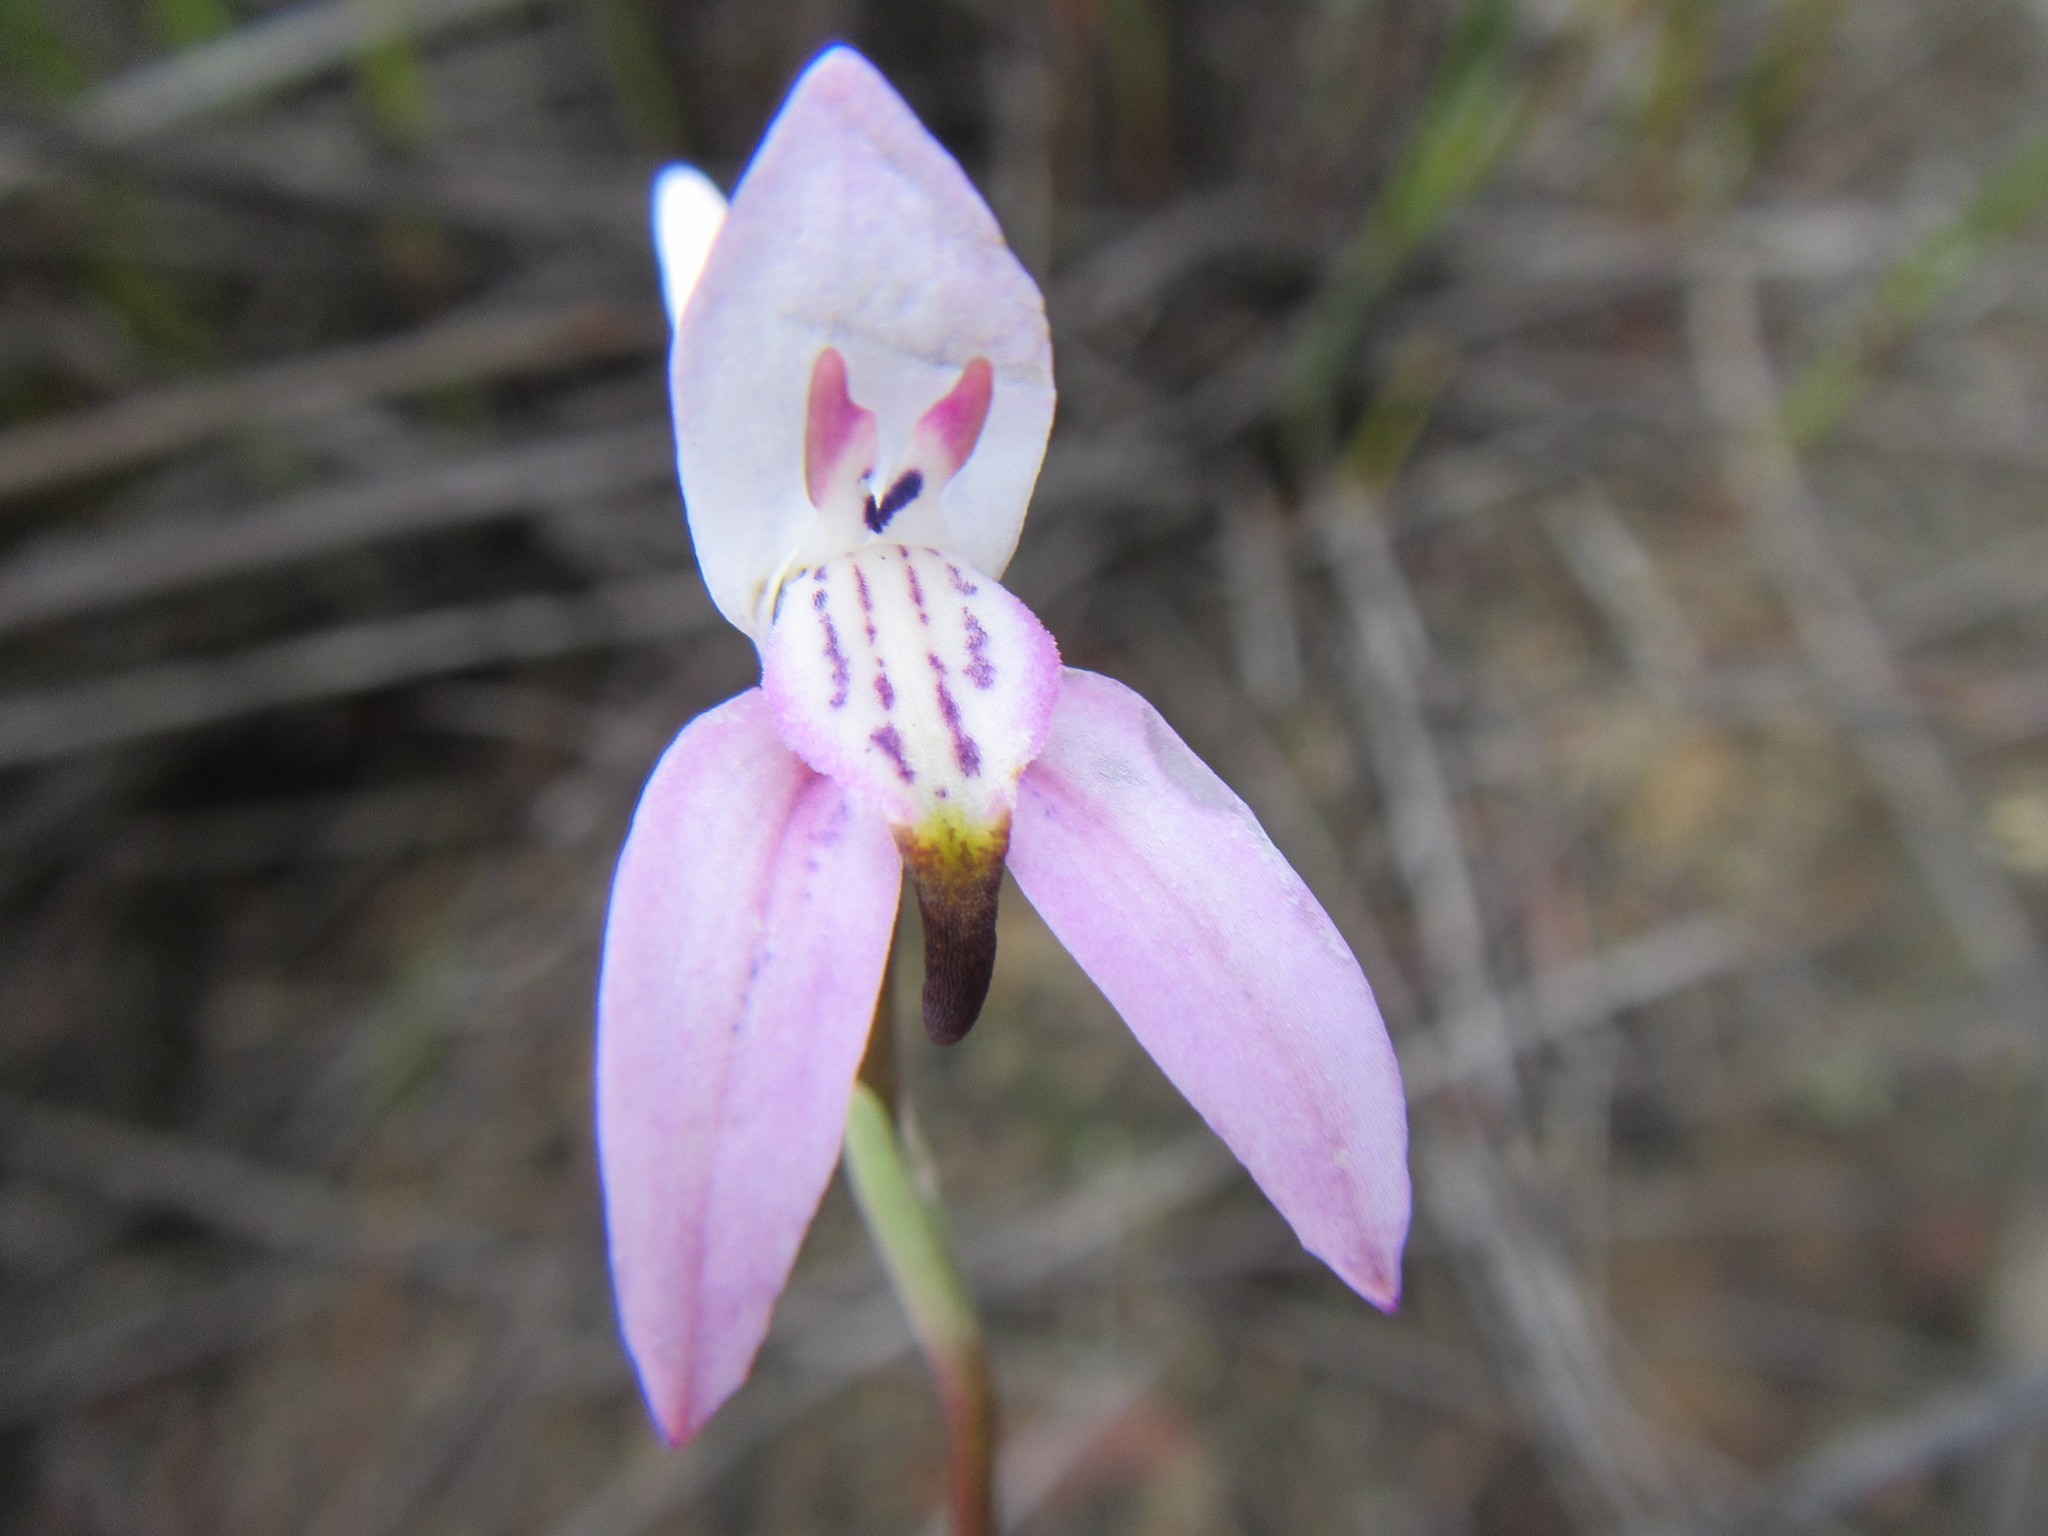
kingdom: Plantae
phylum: Tracheophyta
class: Liliopsida
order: Asparagales
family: Orchidaceae
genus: Disa
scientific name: Disa bifida
